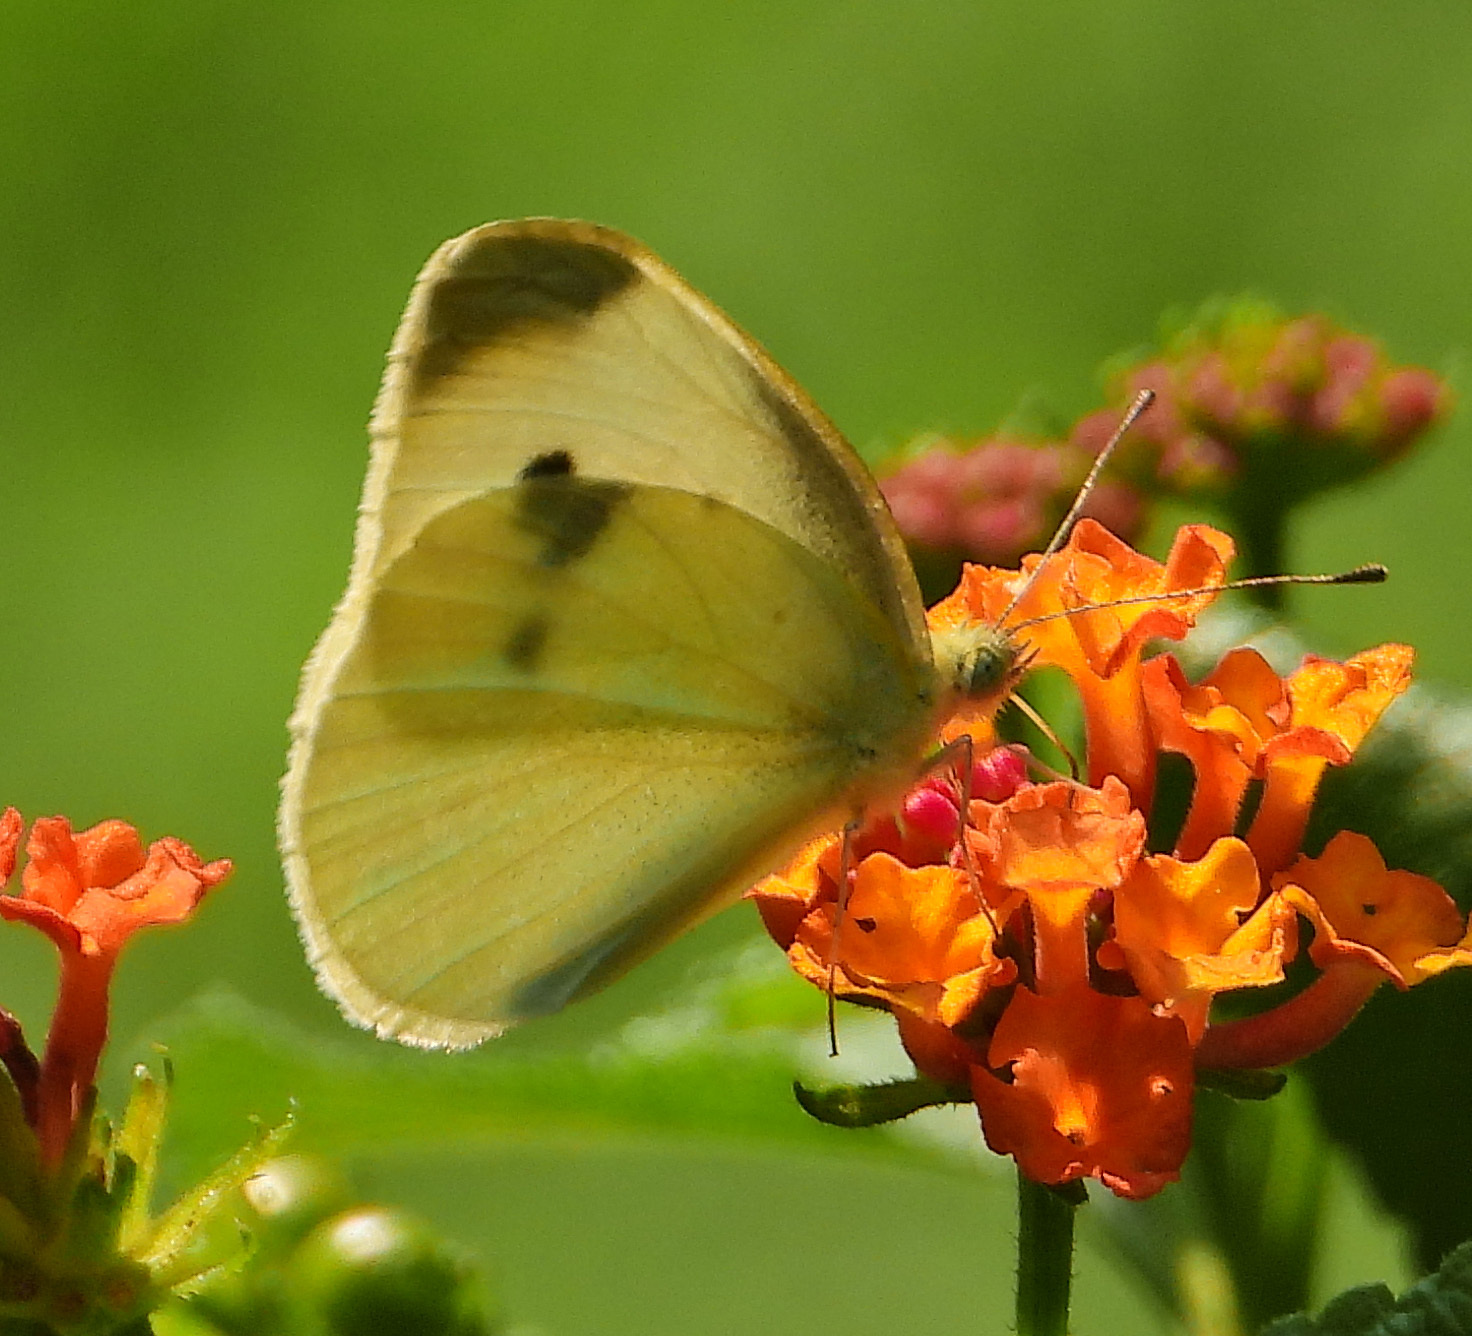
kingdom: Animalia
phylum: Arthropoda
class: Insecta
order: Lepidoptera
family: Pieridae
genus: Pieris
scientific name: Pieris rapae
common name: Small white
